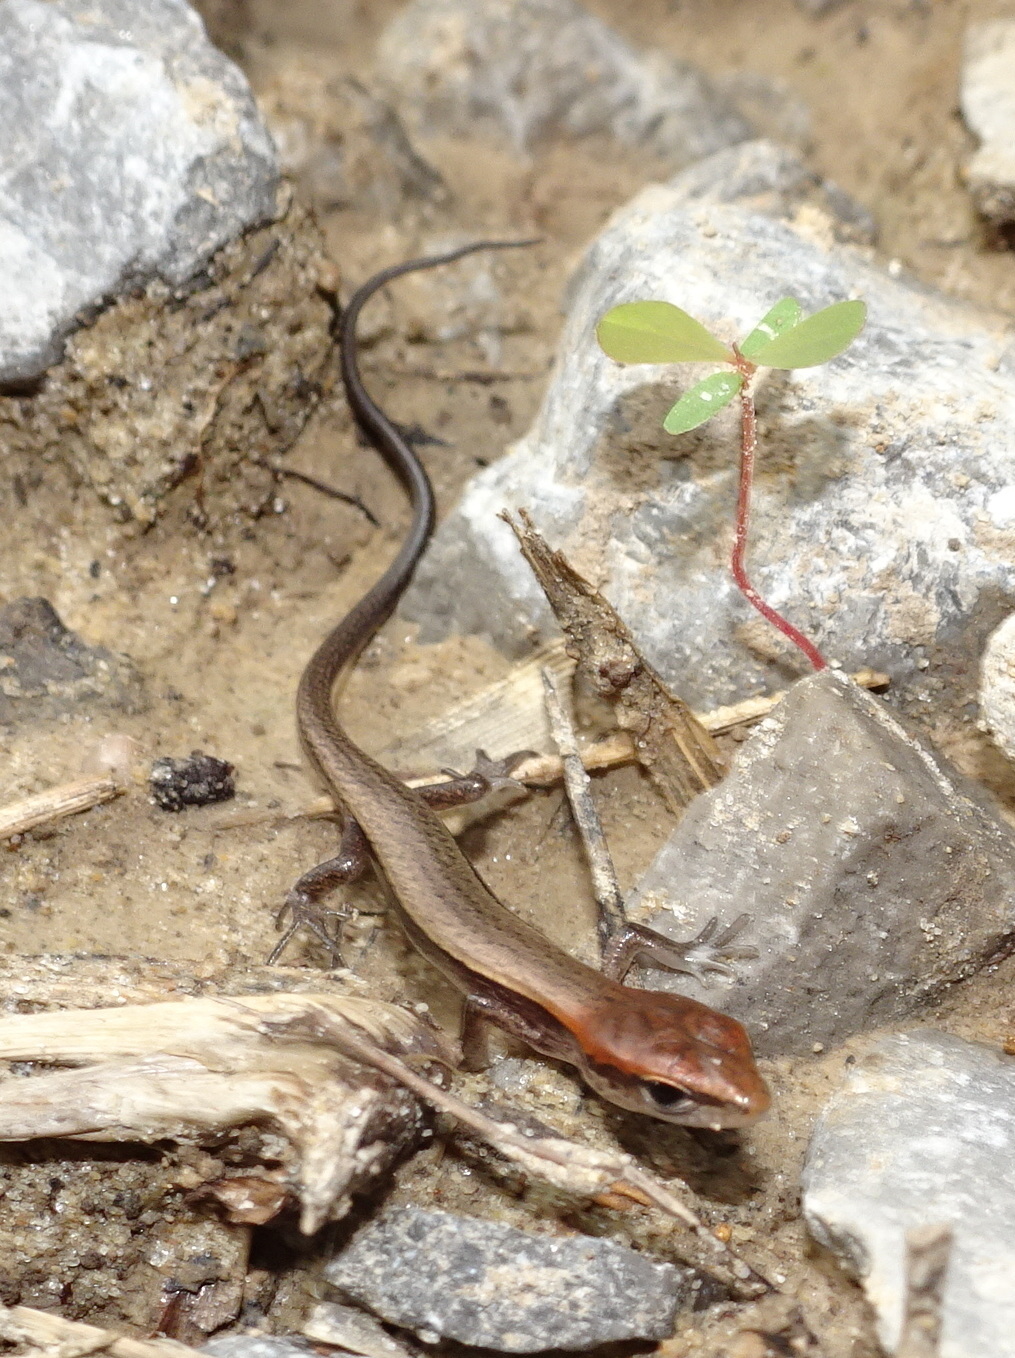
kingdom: Animalia
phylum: Chordata
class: Squamata
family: Scincidae
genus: Scincella
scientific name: Scincella lateralis
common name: Ground skink
